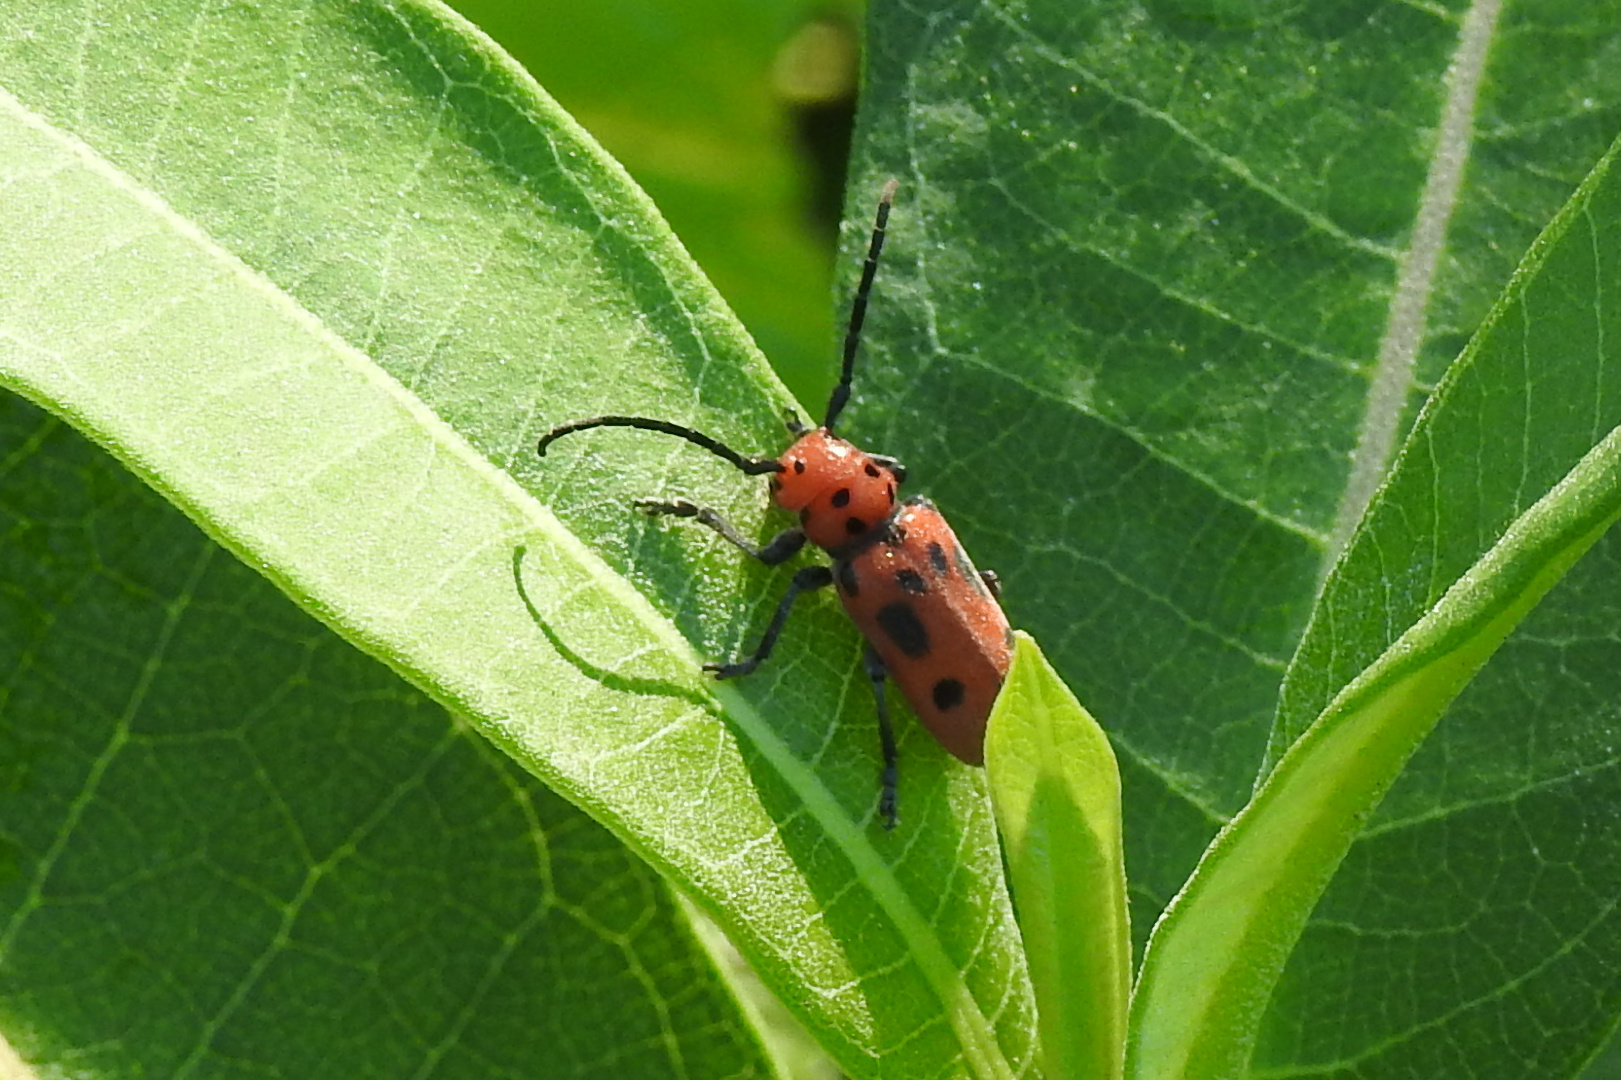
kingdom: Animalia
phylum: Arthropoda
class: Insecta
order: Coleoptera
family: Cerambycidae
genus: Tetraopes
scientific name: Tetraopes tetrophthalmus
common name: Red milkweed beetle
